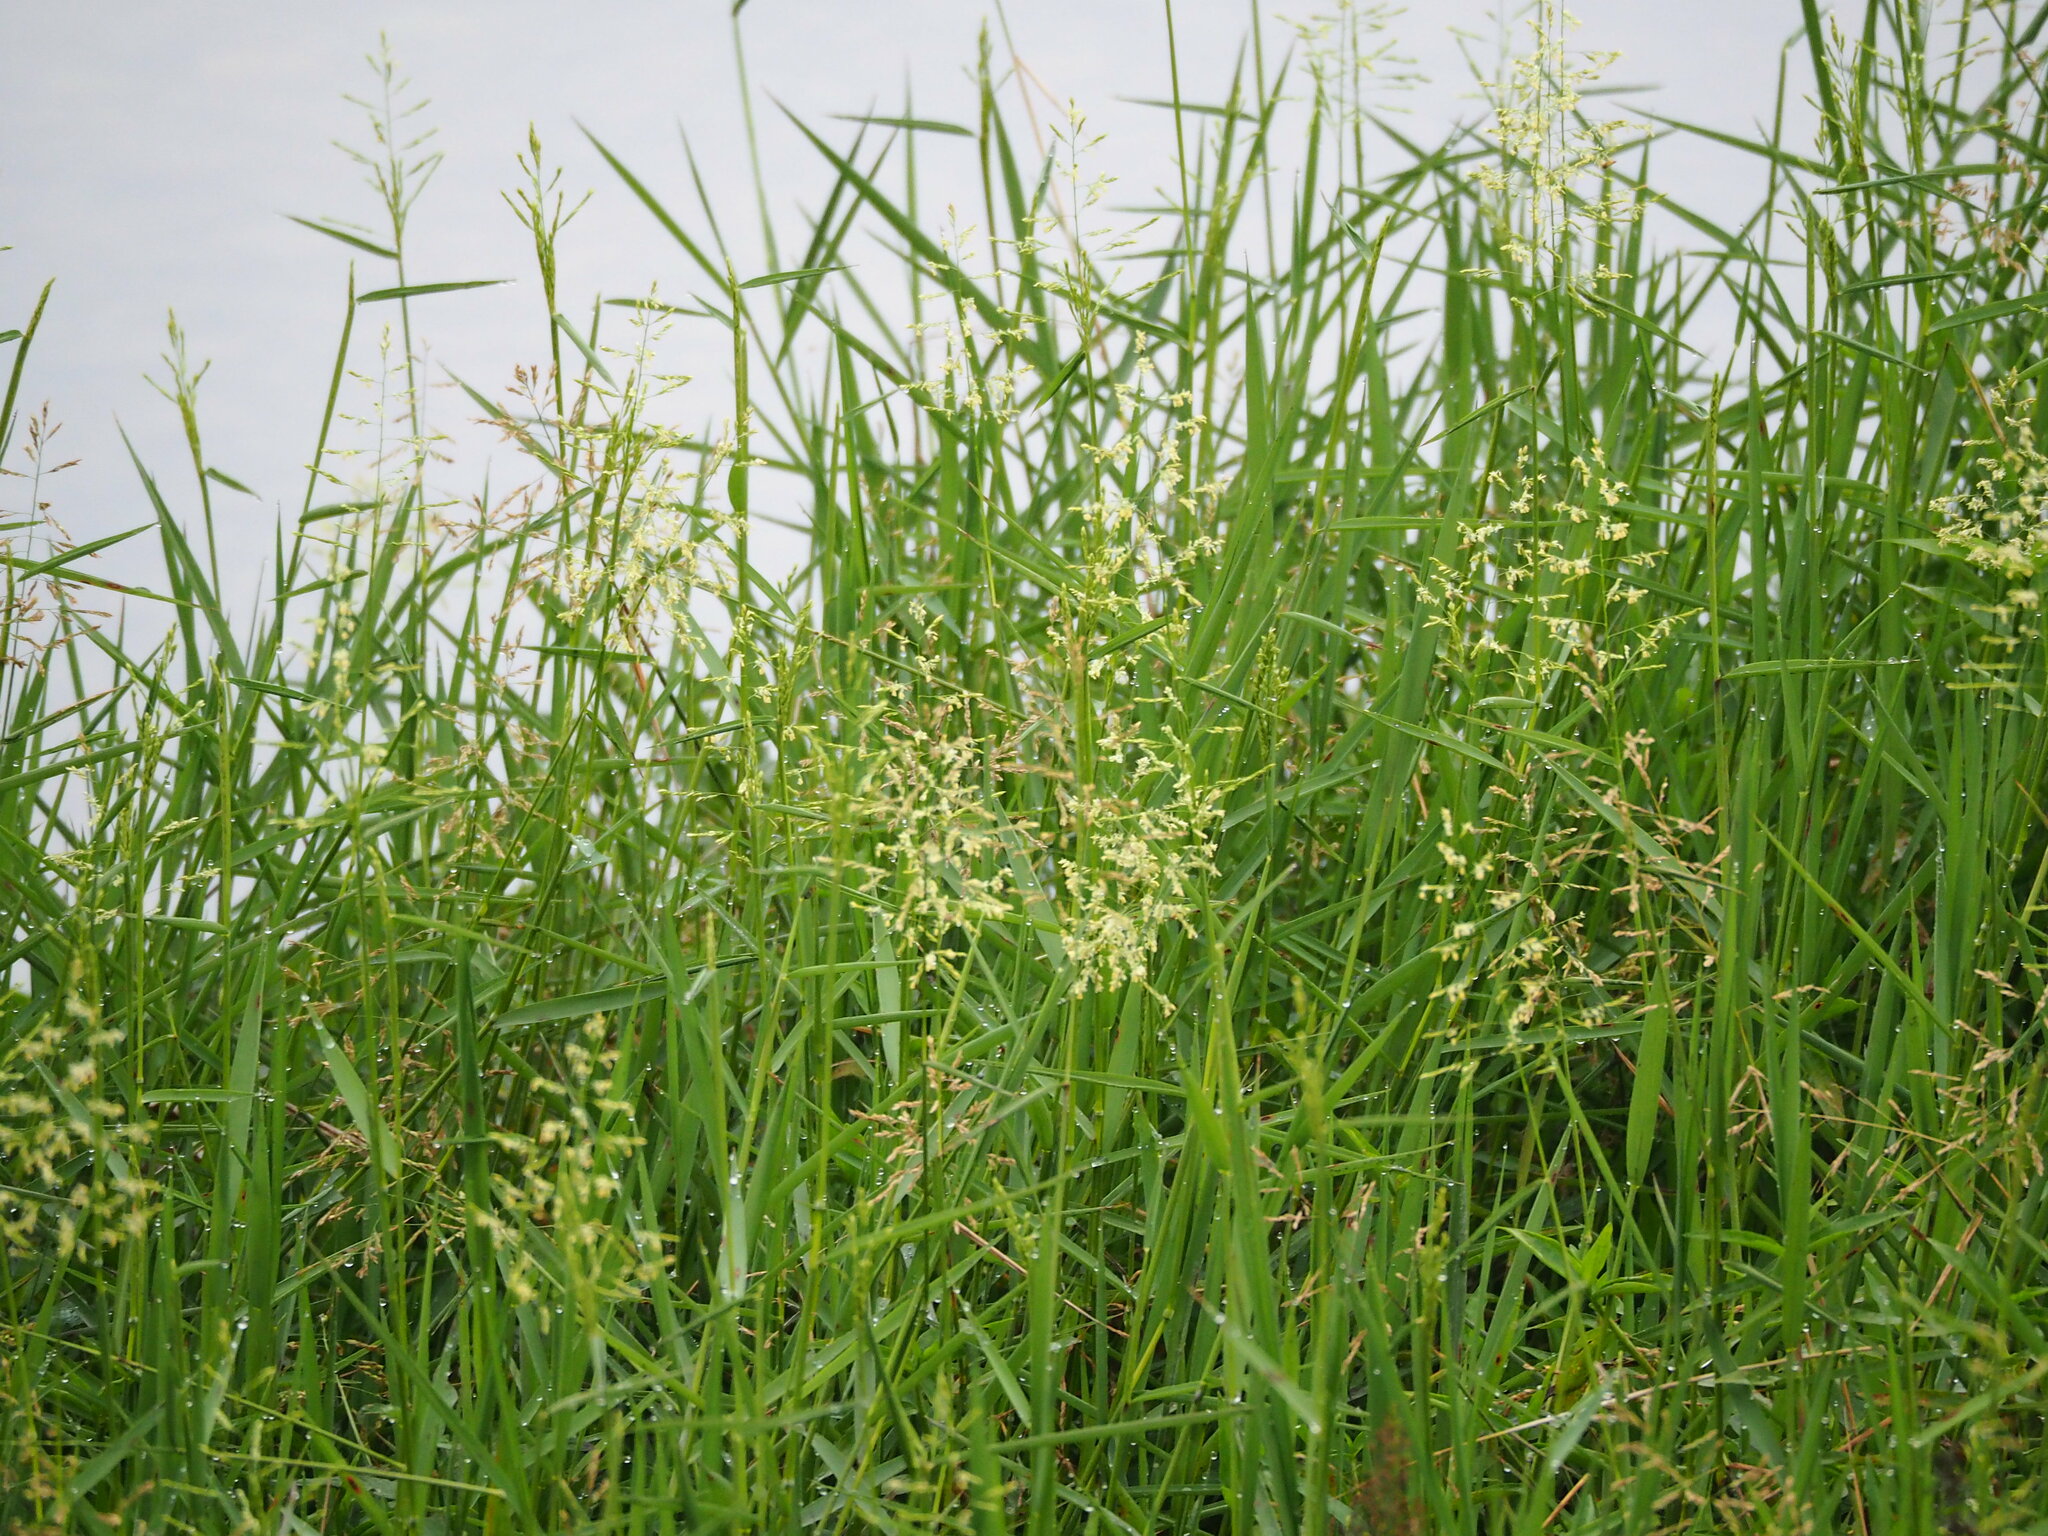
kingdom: Plantae
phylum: Tracheophyta
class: Liliopsida
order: Poales
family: Poaceae
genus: Leersia
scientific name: Leersia hexandra
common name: Southern cut grass
